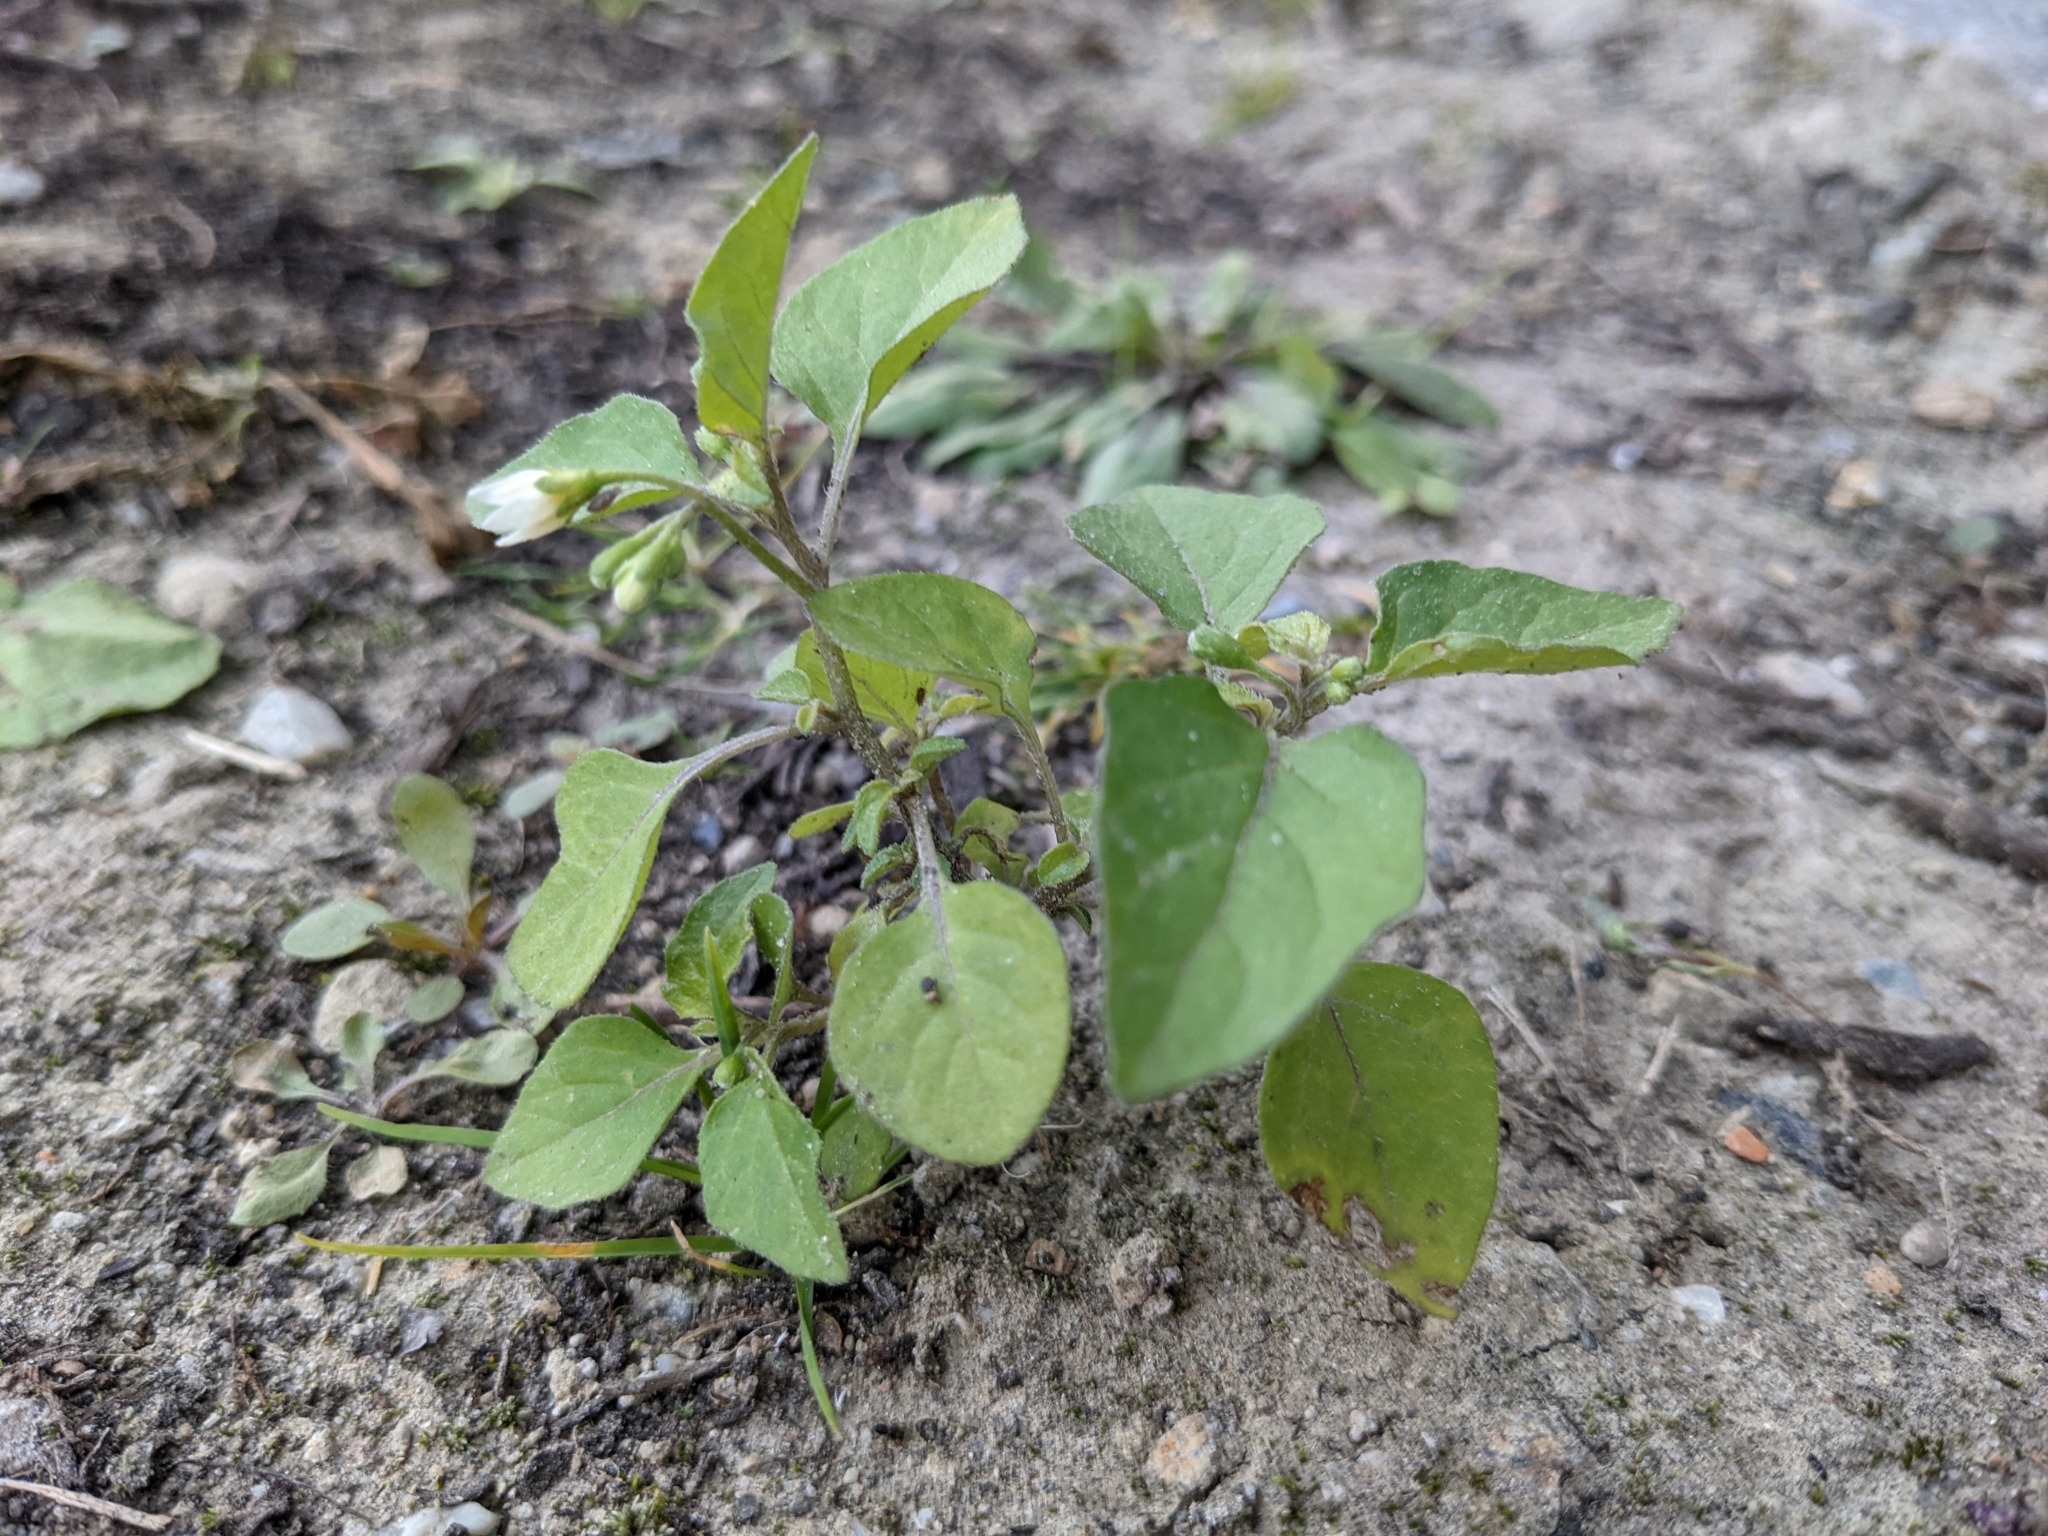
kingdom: Plantae
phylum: Tracheophyta
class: Magnoliopsida
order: Solanales
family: Solanaceae
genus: Solanum
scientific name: Solanum nigrum
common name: Black nightshade
